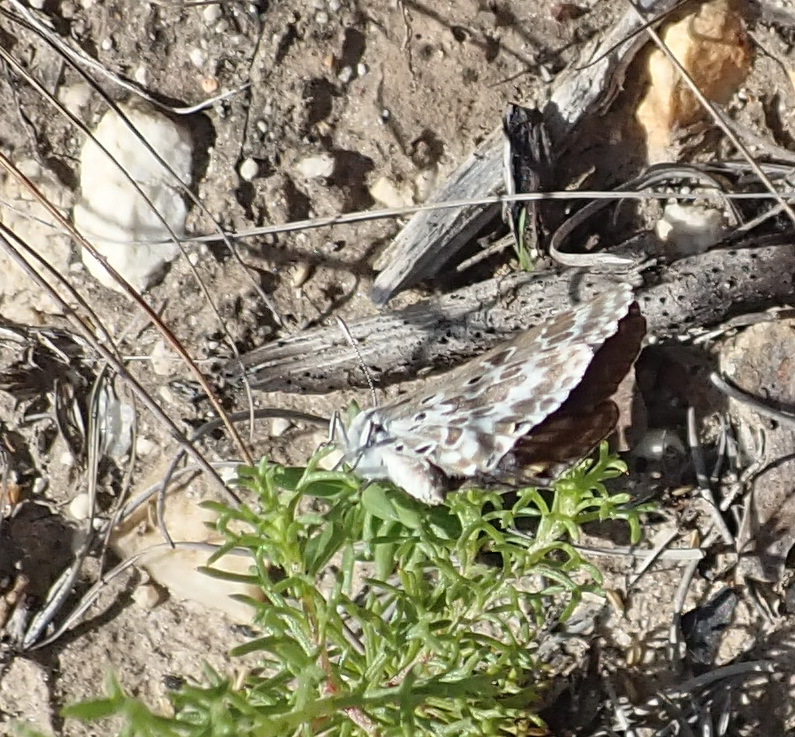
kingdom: Animalia
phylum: Arthropoda
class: Insecta
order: Lepidoptera
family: Lycaenidae
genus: Lepidochrysops
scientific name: Lepidochrysops asteris
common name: Brilliant blue
